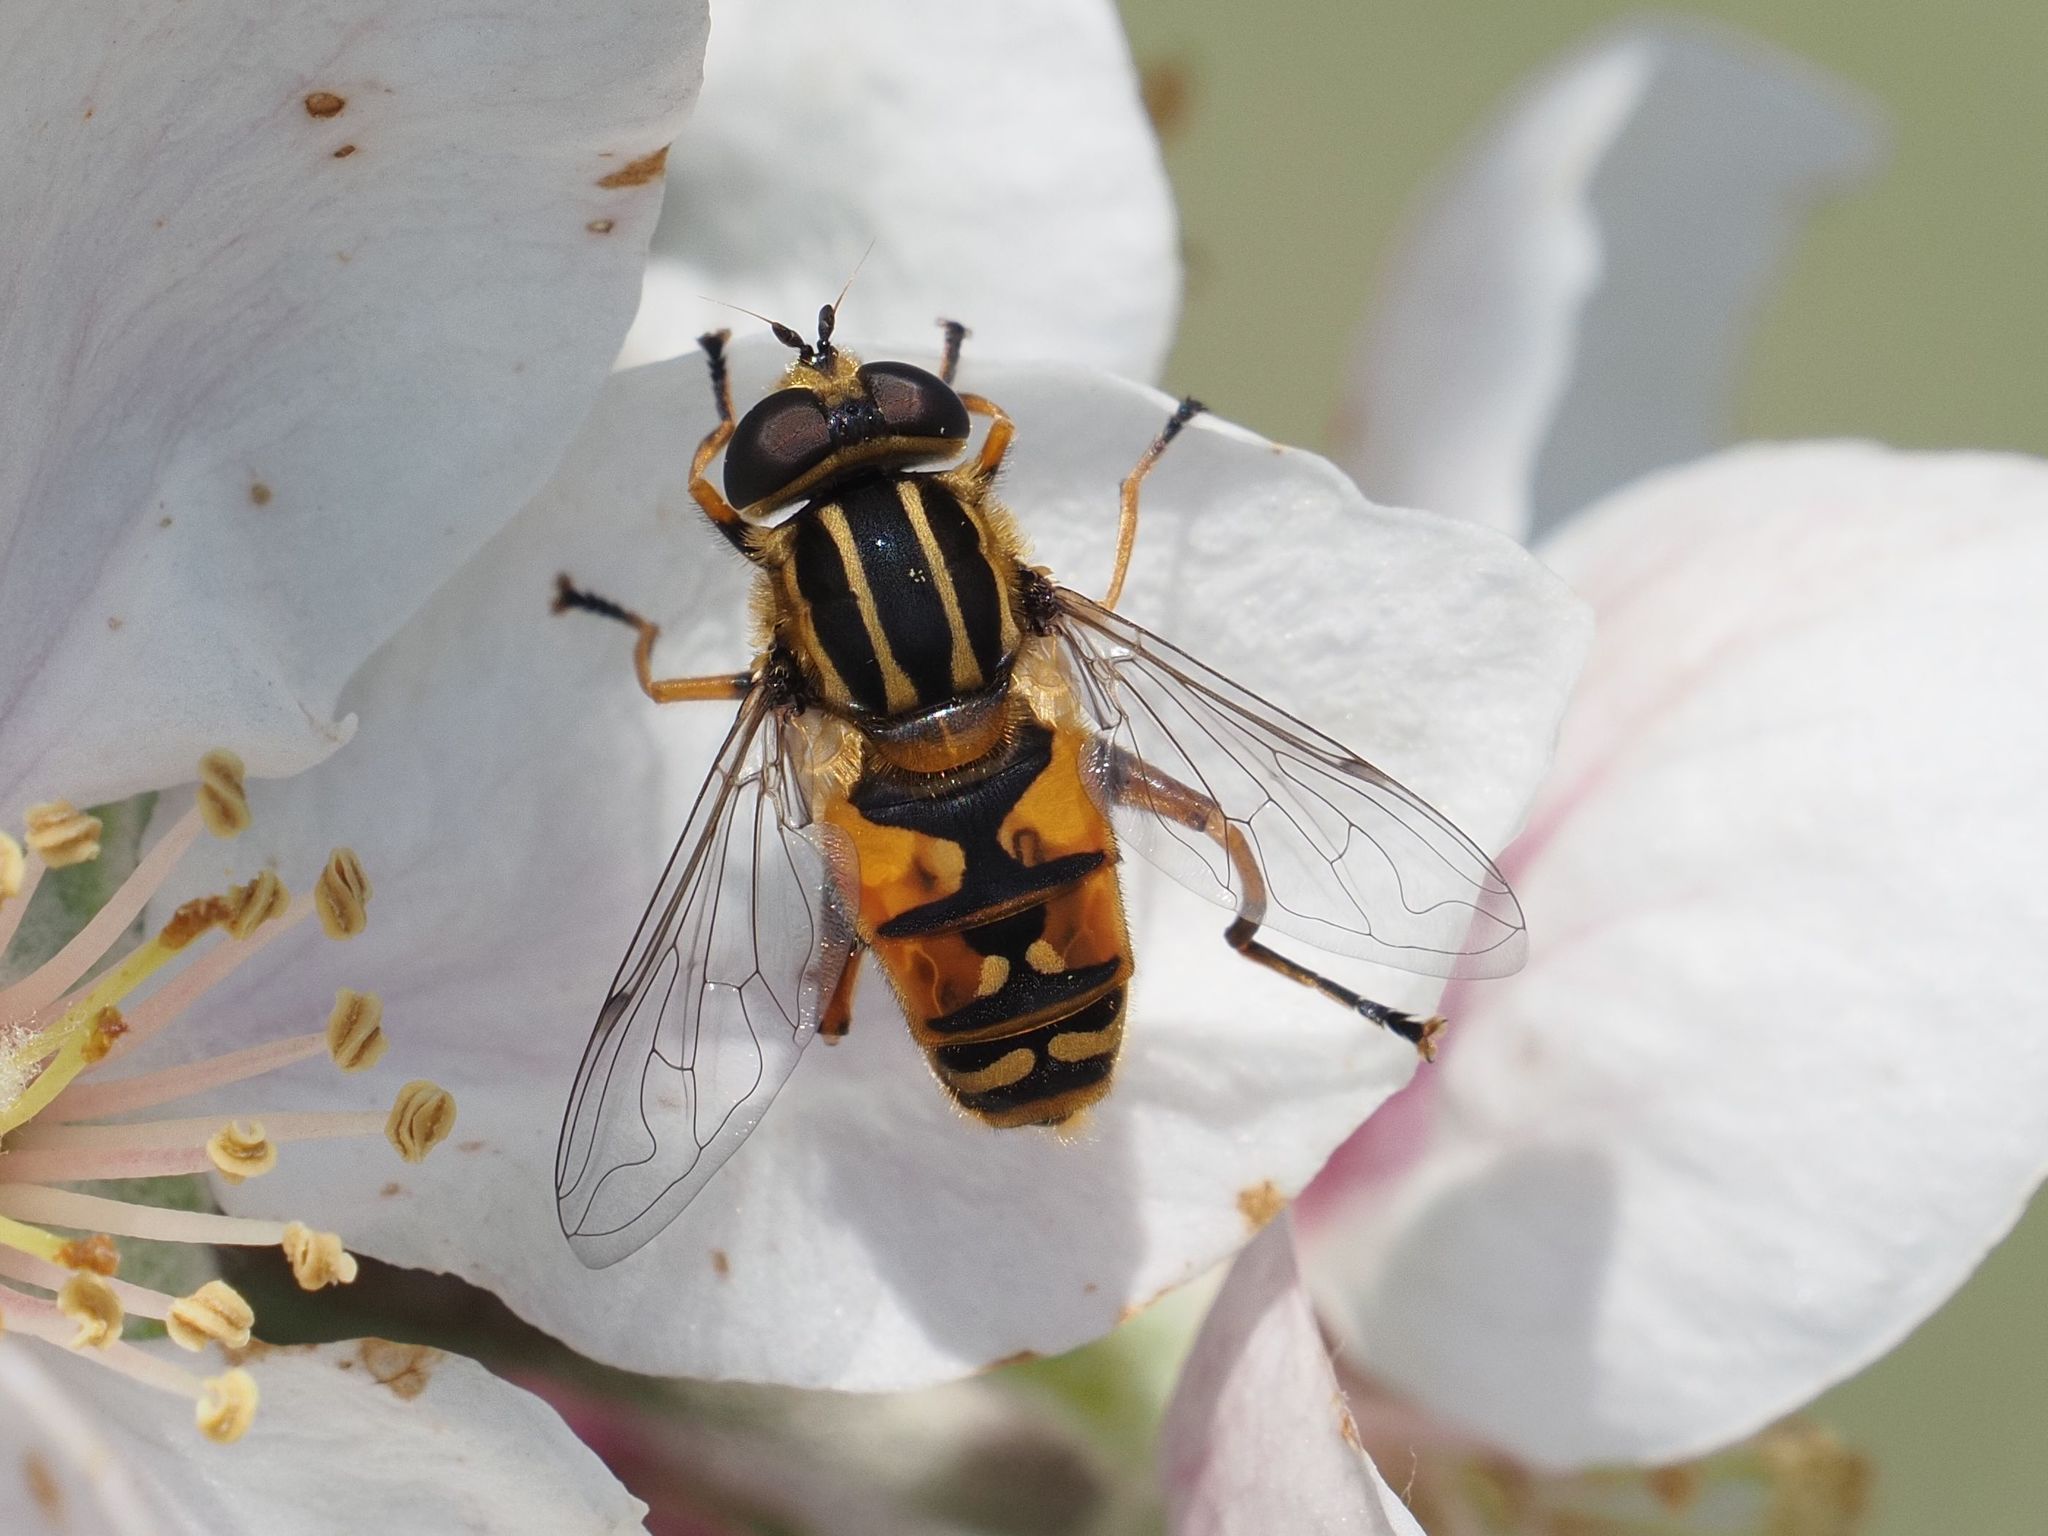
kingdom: Animalia
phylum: Arthropoda
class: Insecta
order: Diptera
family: Syrphidae
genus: Helophilus
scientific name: Helophilus pendulus
